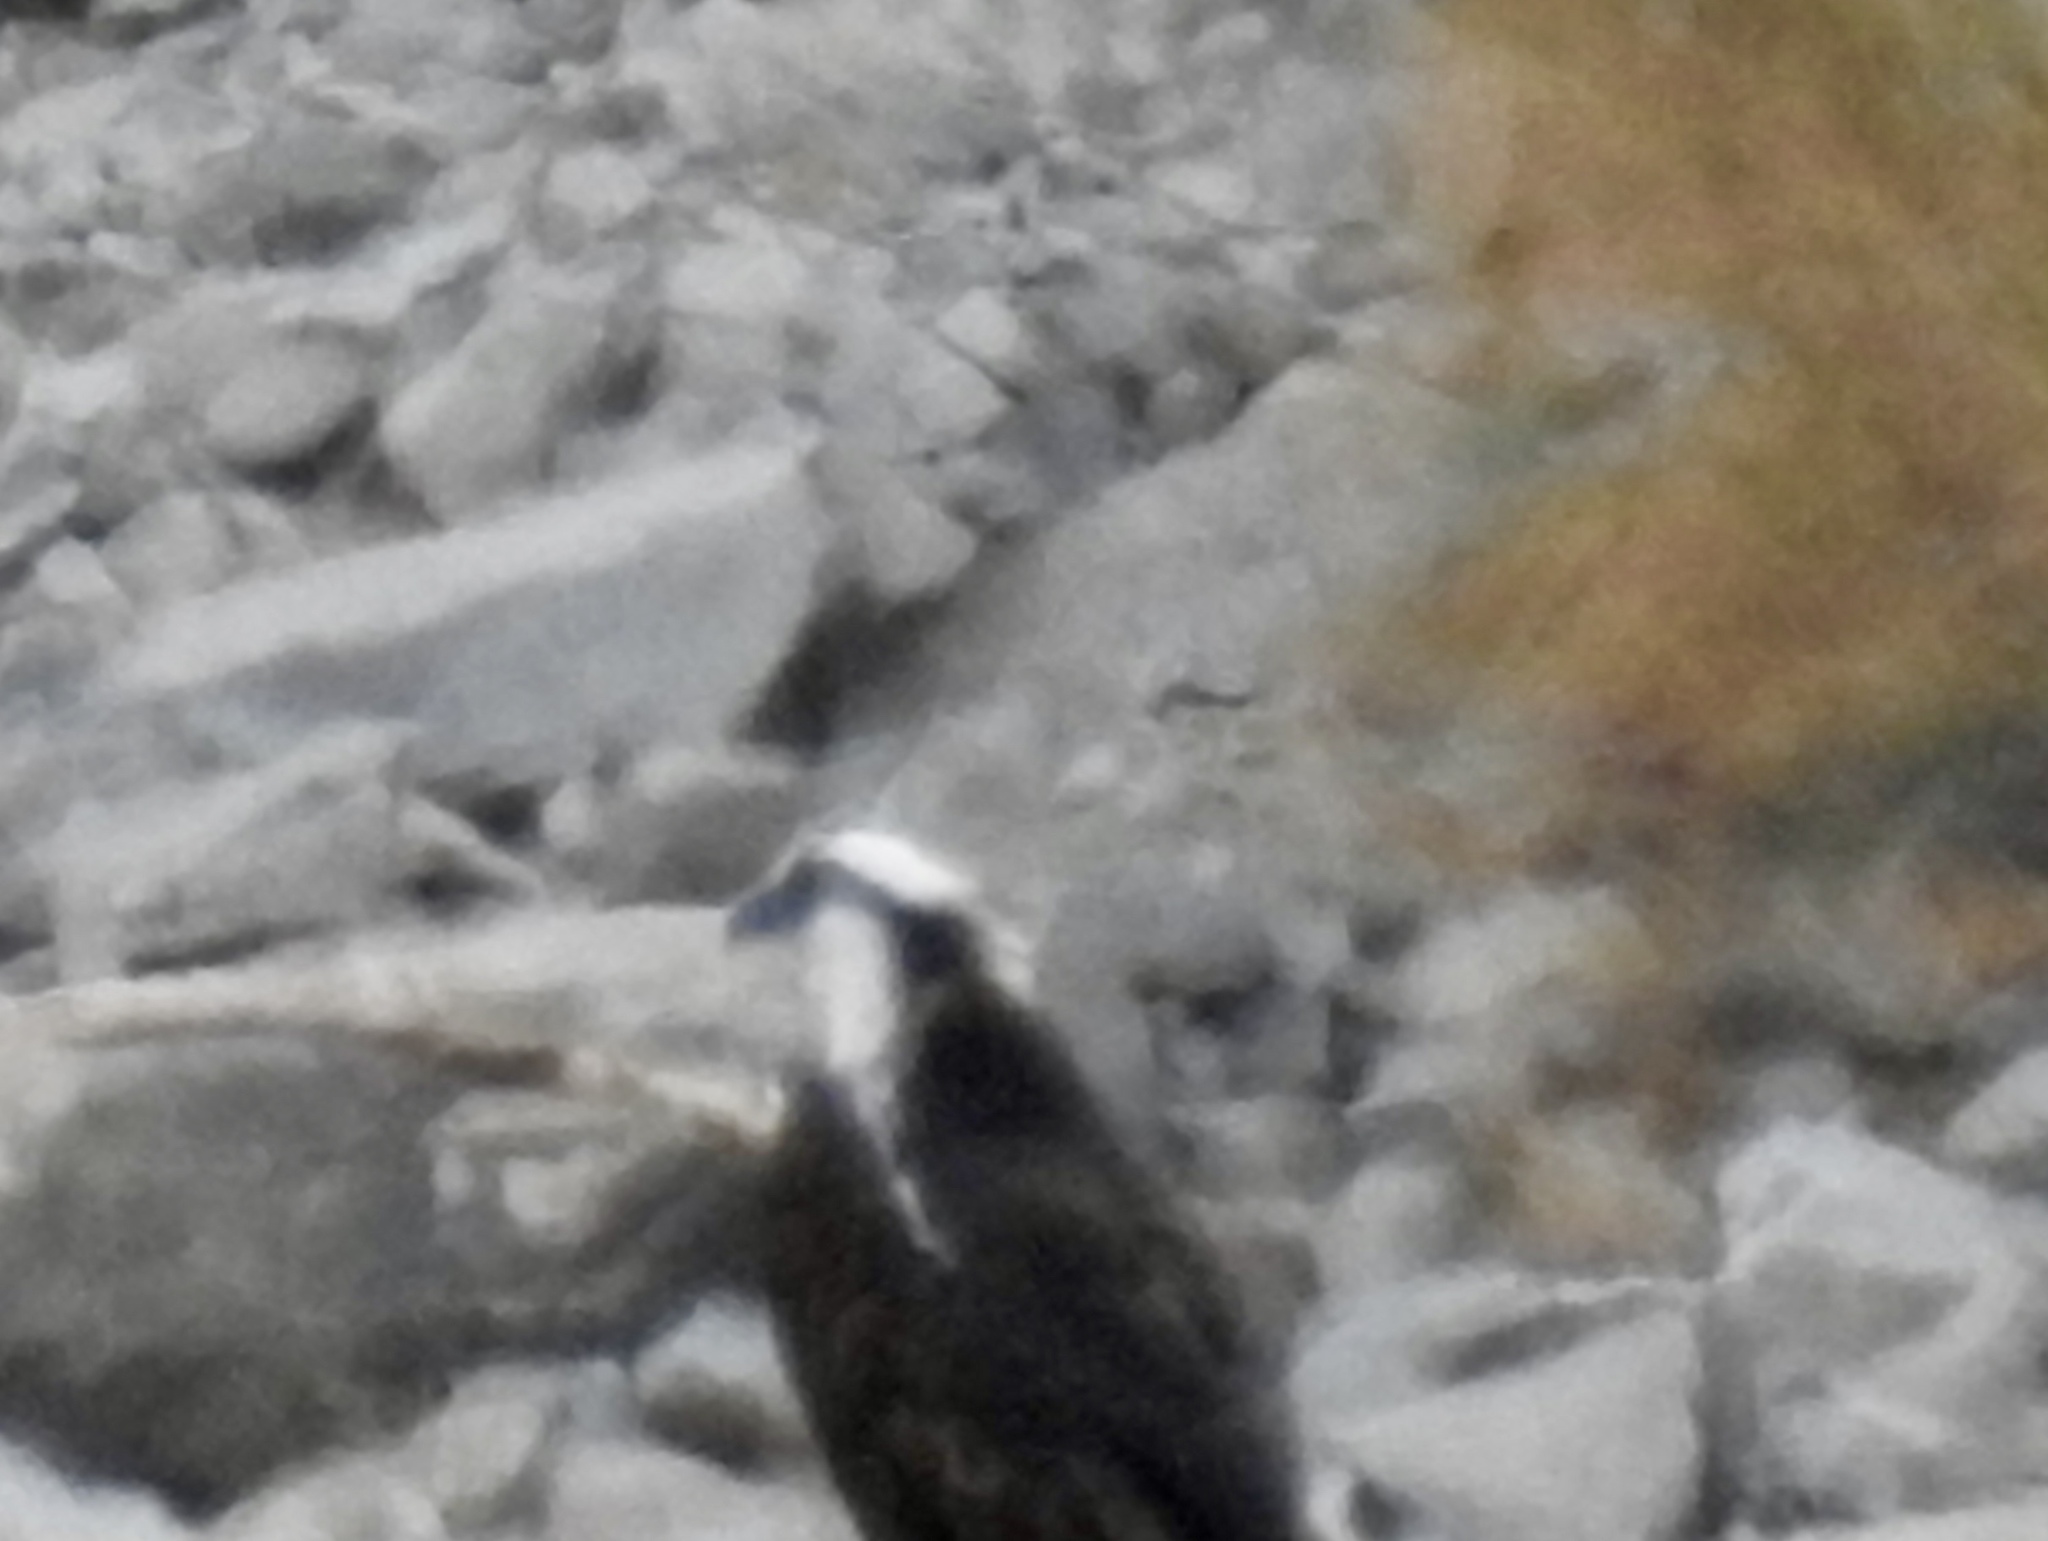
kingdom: Animalia
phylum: Chordata
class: Aves
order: Accipitriformes
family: Pandionidae
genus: Pandion
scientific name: Pandion haliaetus
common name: Osprey
